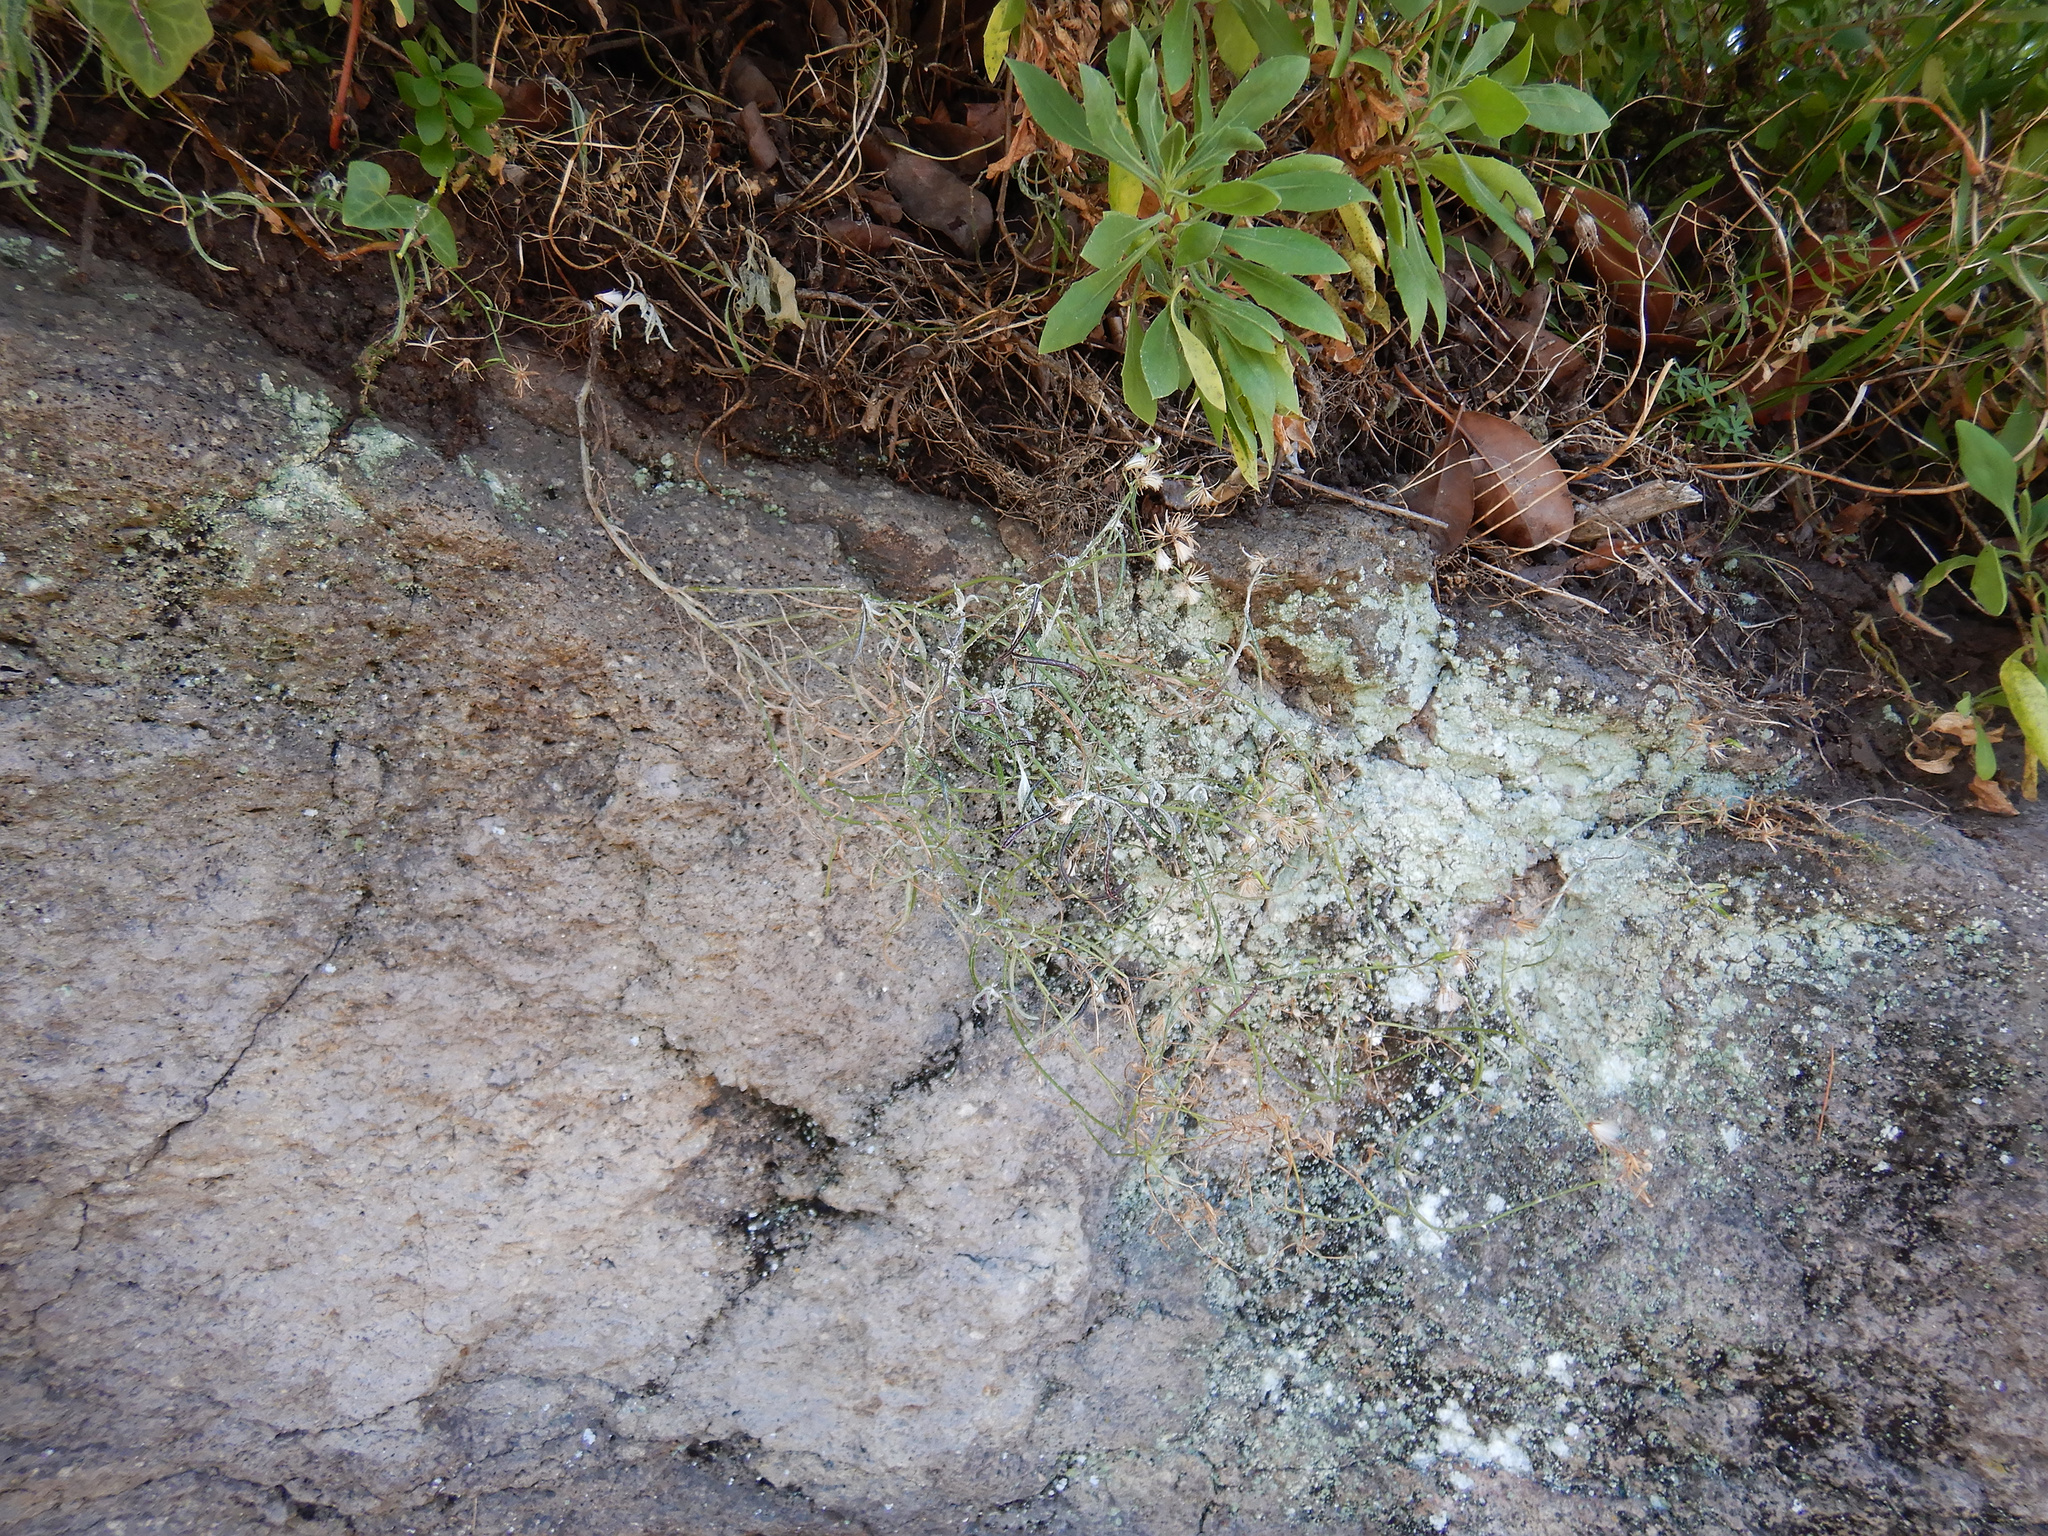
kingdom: Plantae
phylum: Tracheophyta
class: Magnoliopsida
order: Asterales
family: Asteraceae
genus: Senecio
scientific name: Senecio quadridentatus
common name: Cotton fireweed
